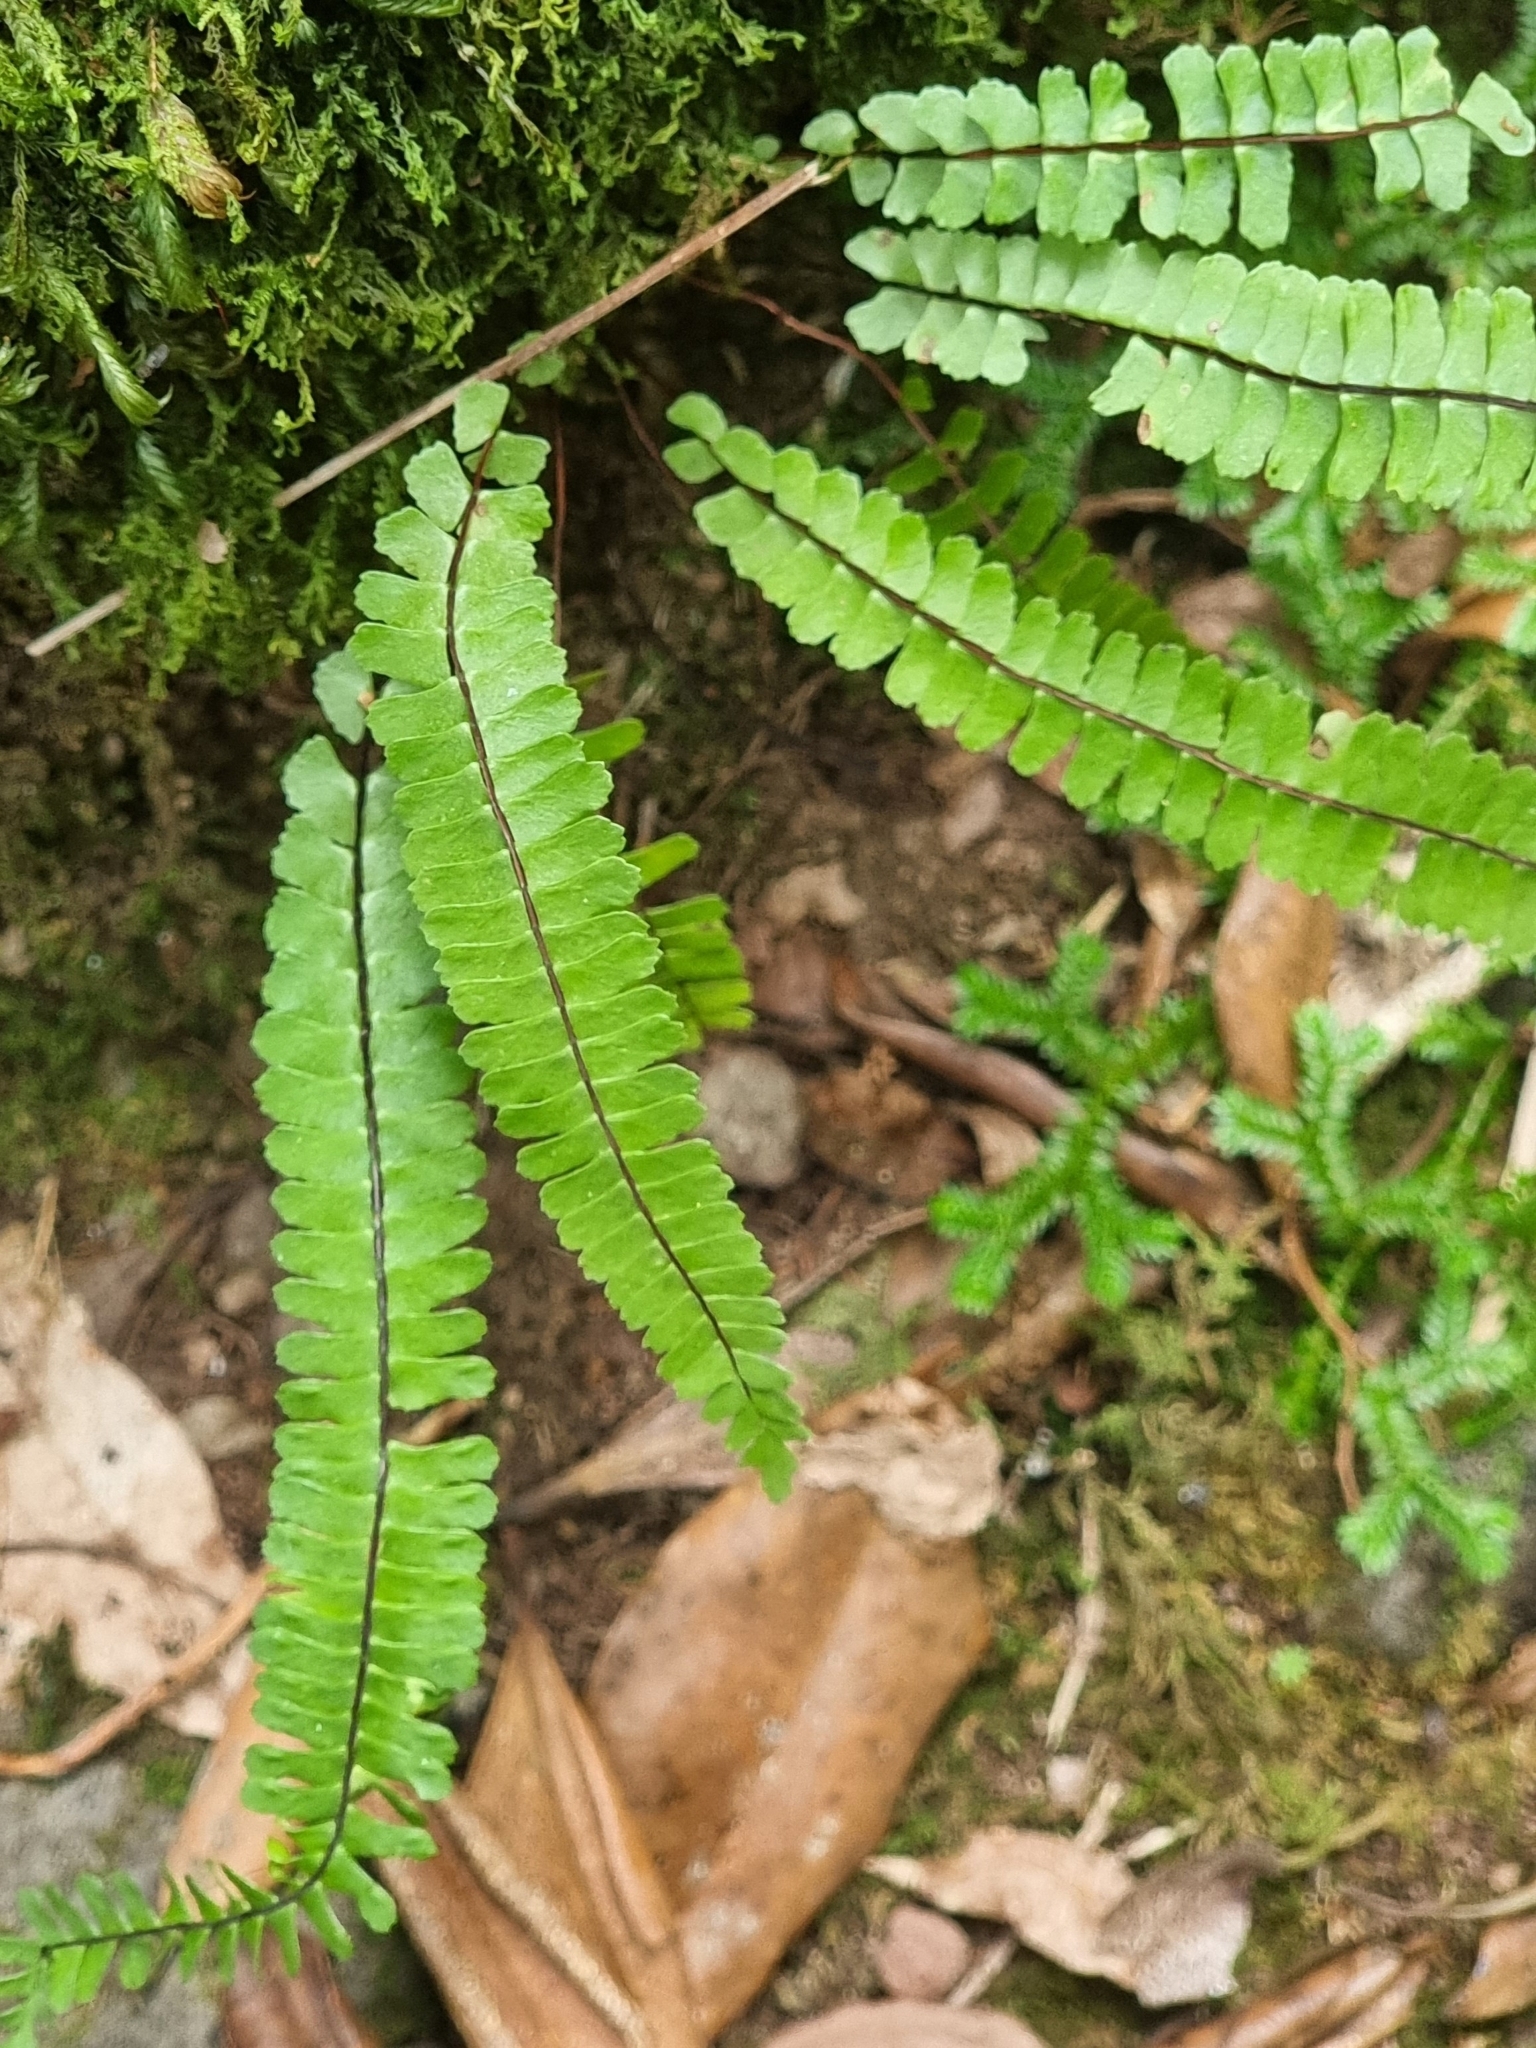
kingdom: Plantae
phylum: Tracheophyta
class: Polypodiopsida
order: Polypodiales
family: Aspleniaceae
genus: Asplenium
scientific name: Asplenium monanthes
